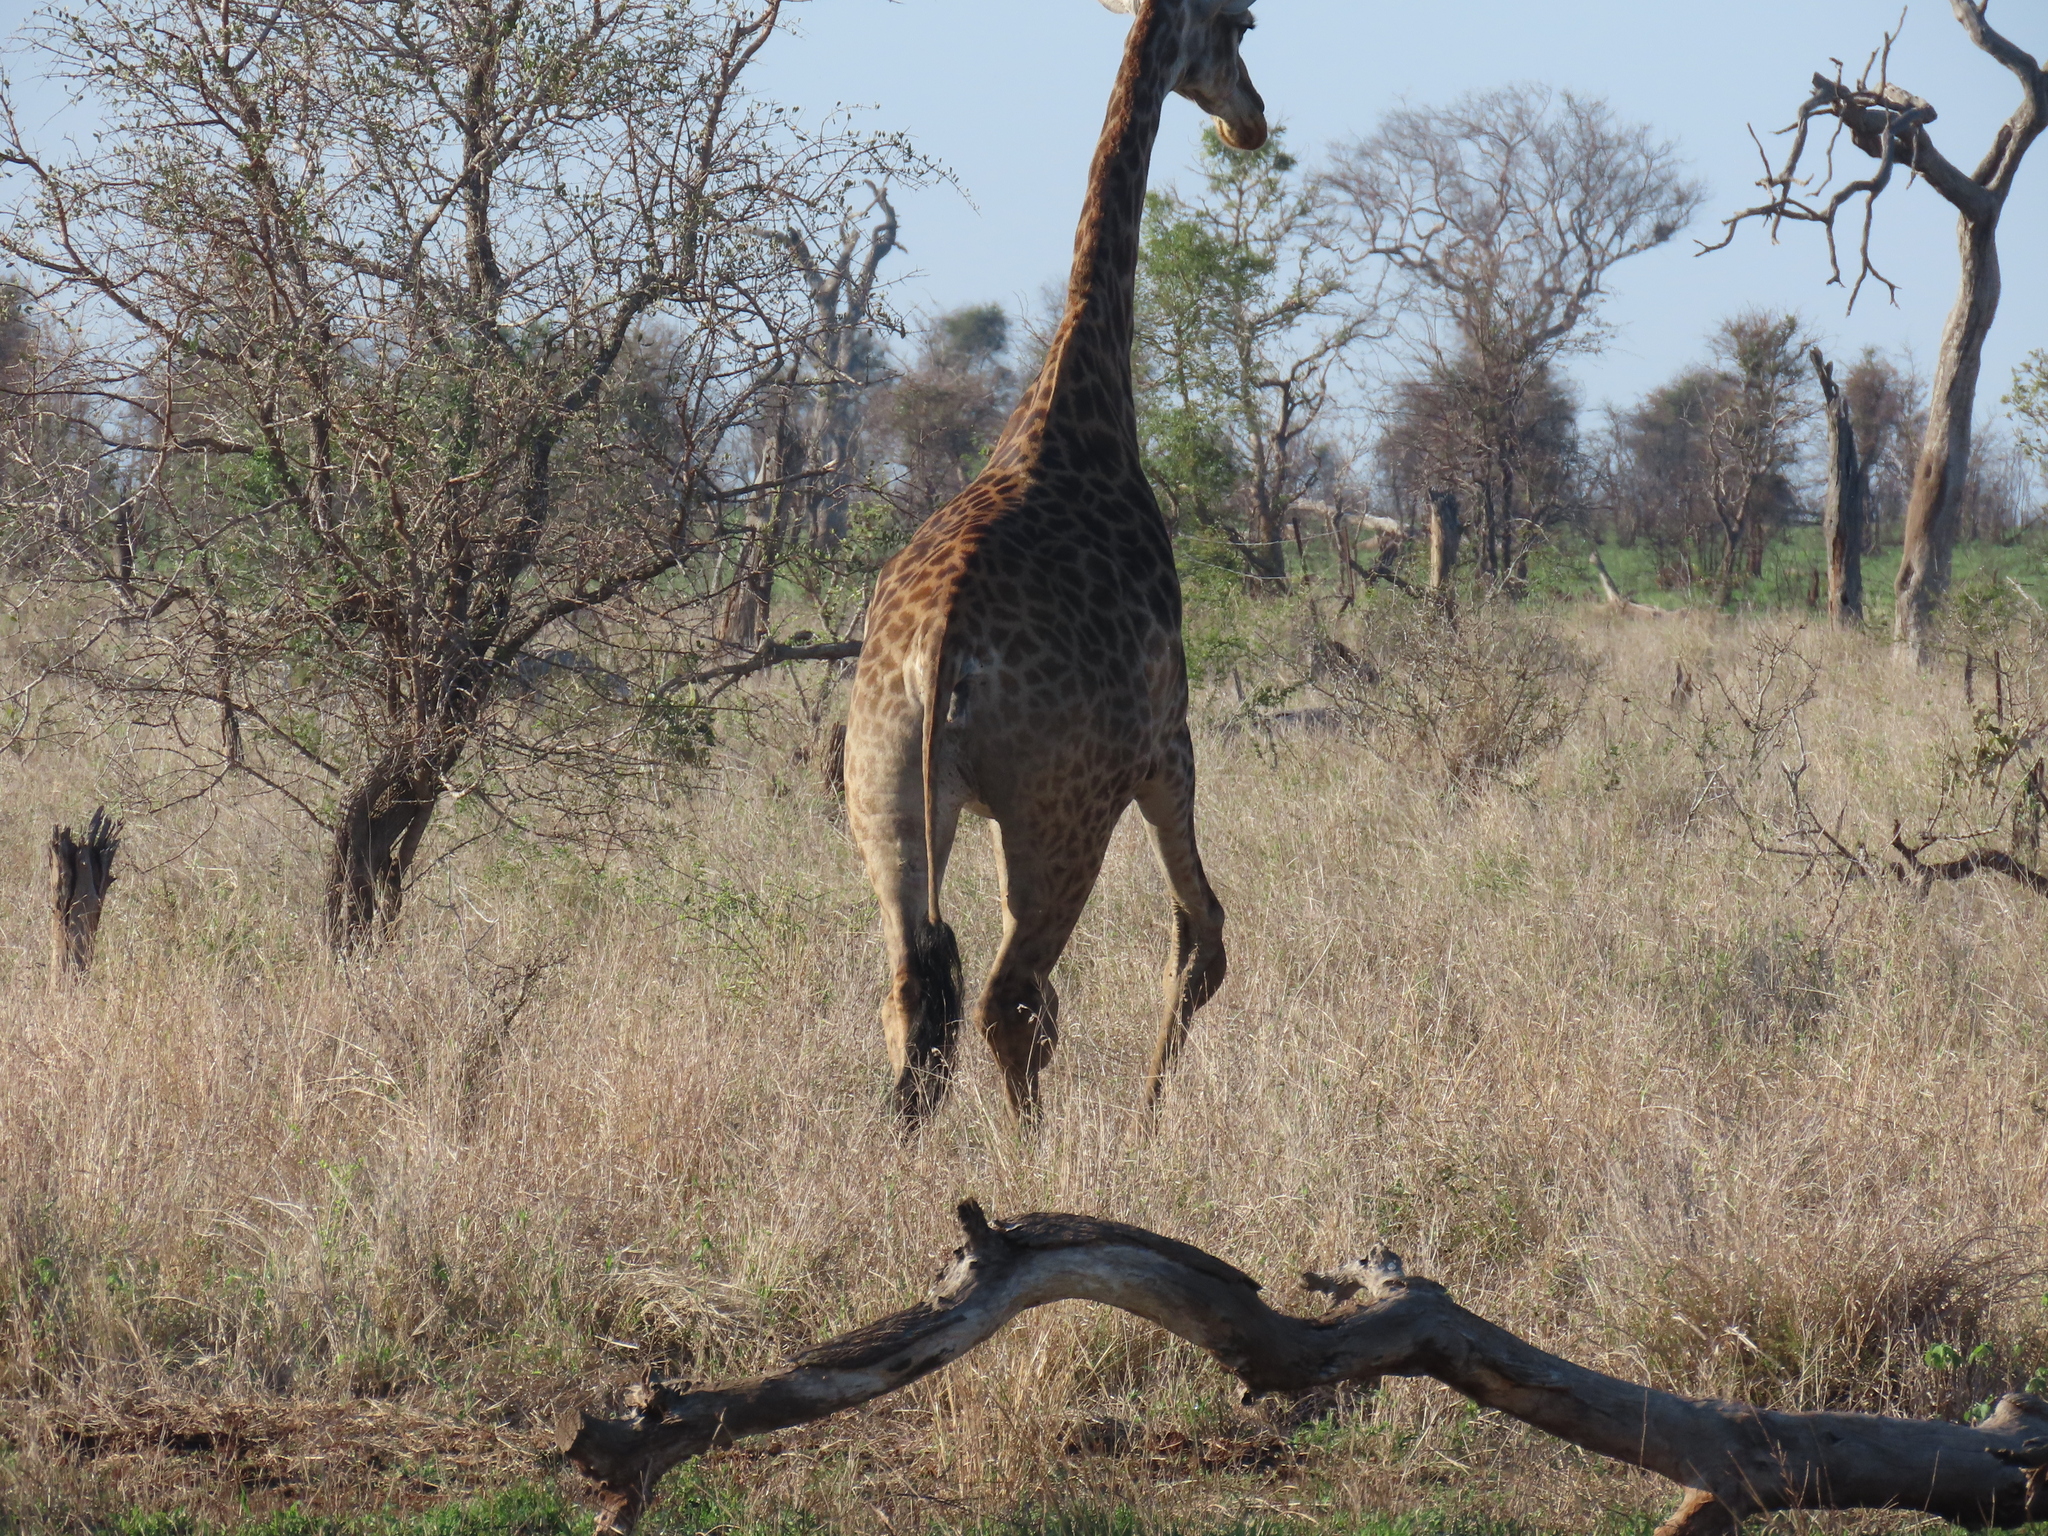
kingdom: Animalia
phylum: Chordata
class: Mammalia
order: Artiodactyla
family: Giraffidae
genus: Giraffa
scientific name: Giraffa giraffa
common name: Southern giraffe
